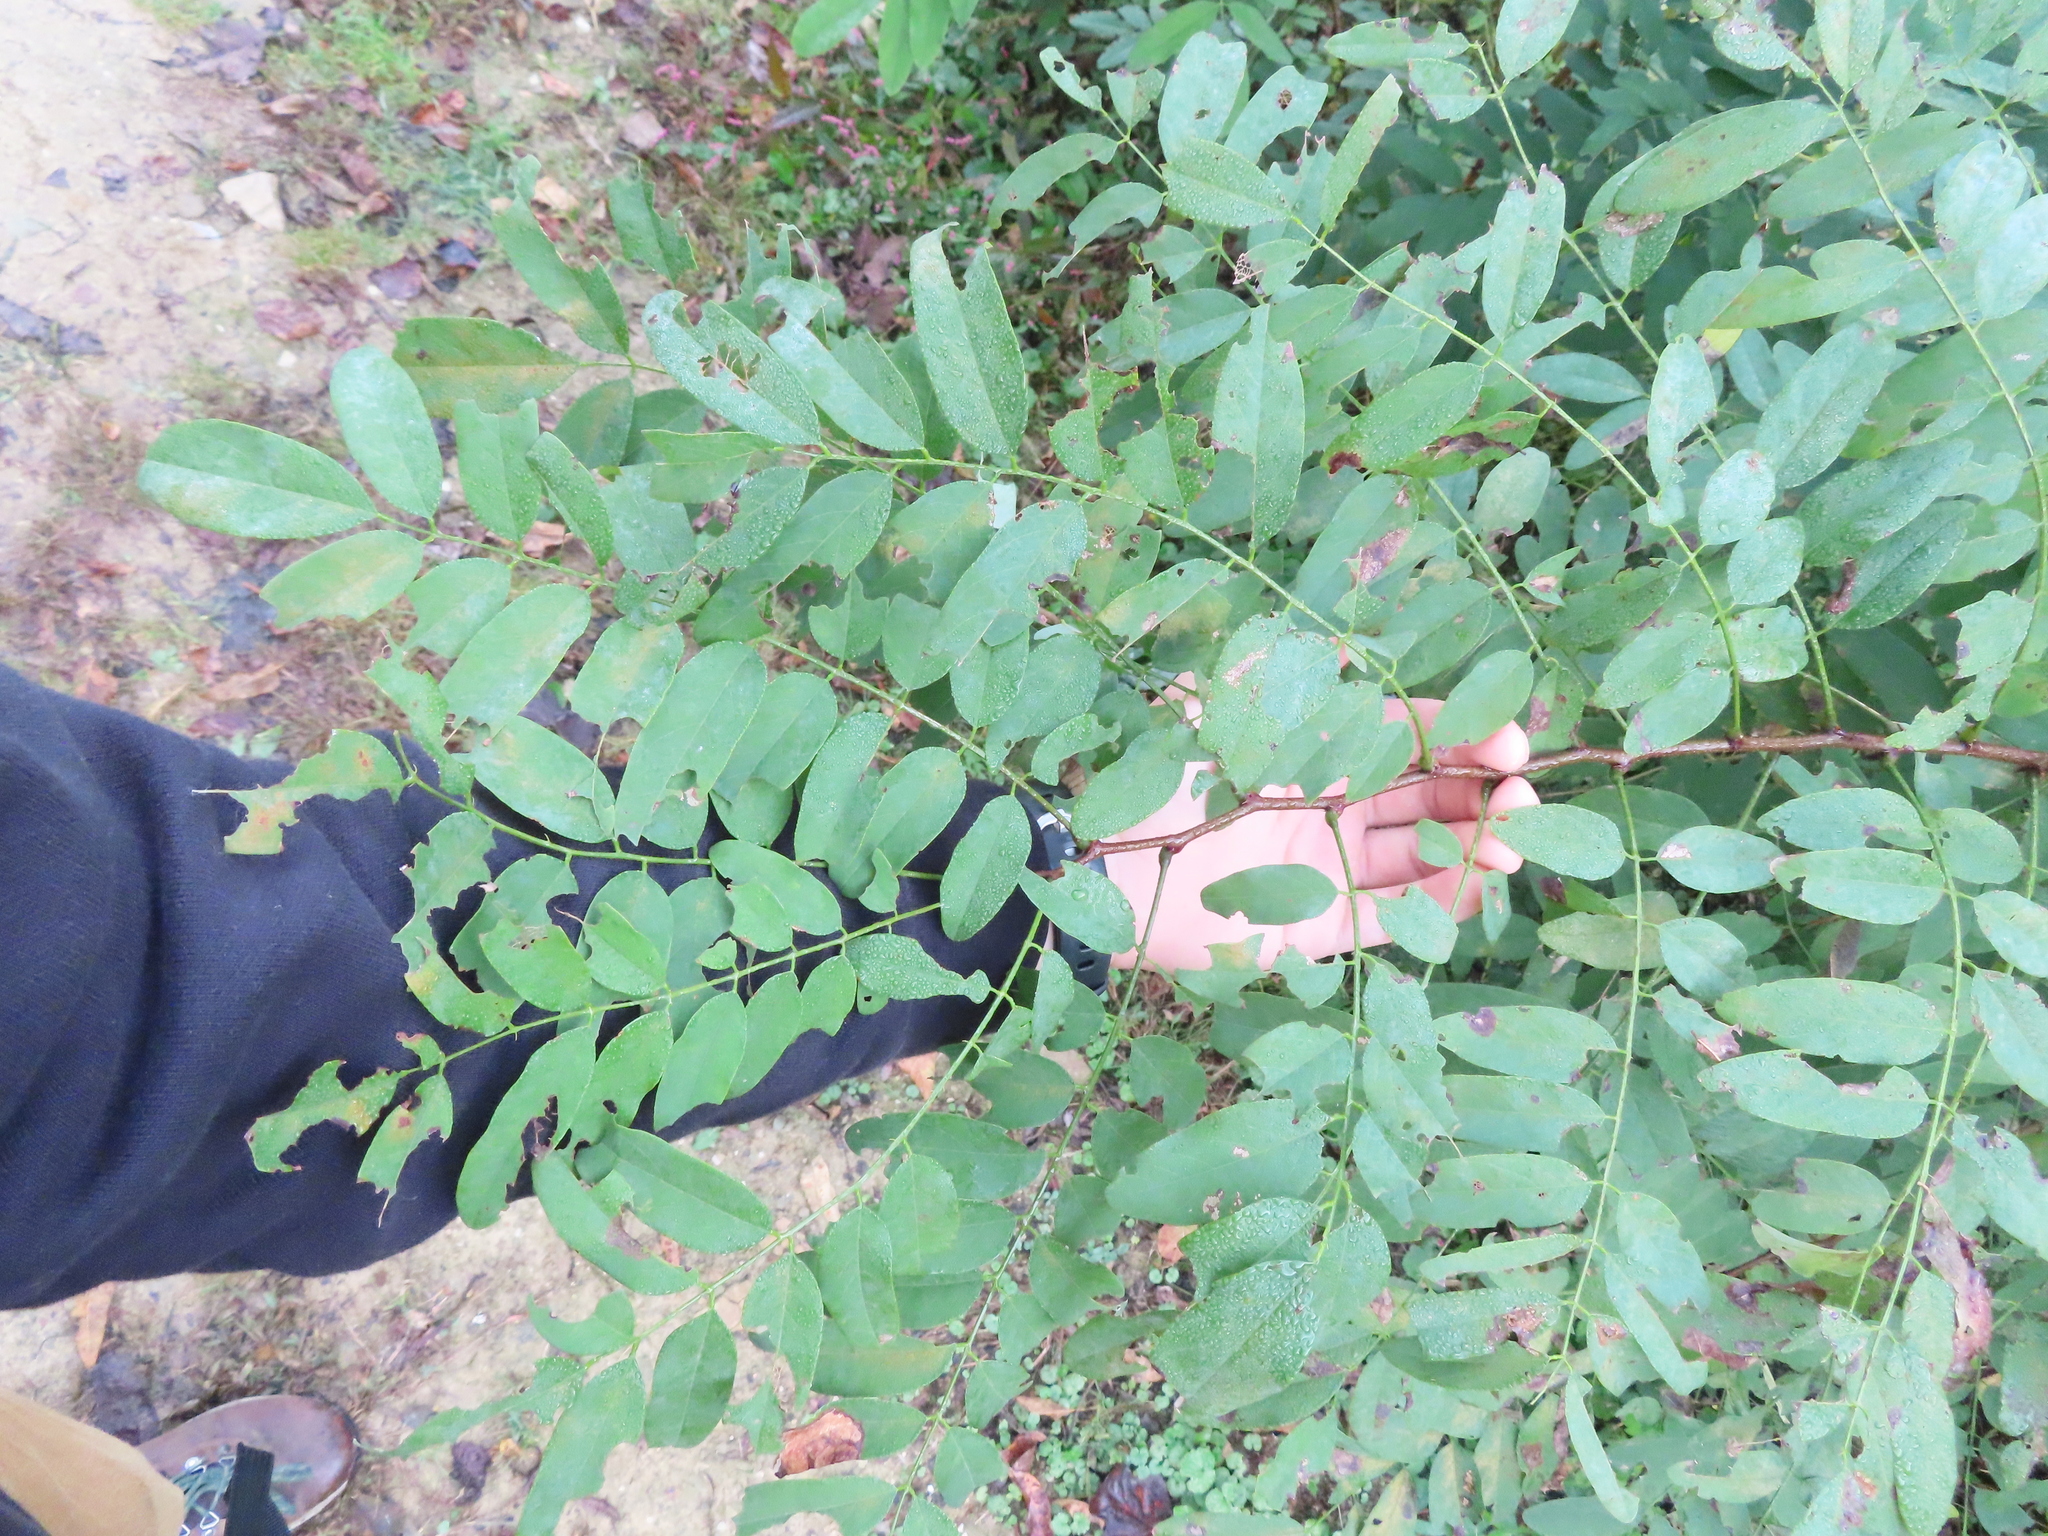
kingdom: Plantae
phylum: Tracheophyta
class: Magnoliopsida
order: Fabales
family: Fabaceae
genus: Robinia
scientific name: Robinia pseudoacacia
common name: Black locust
